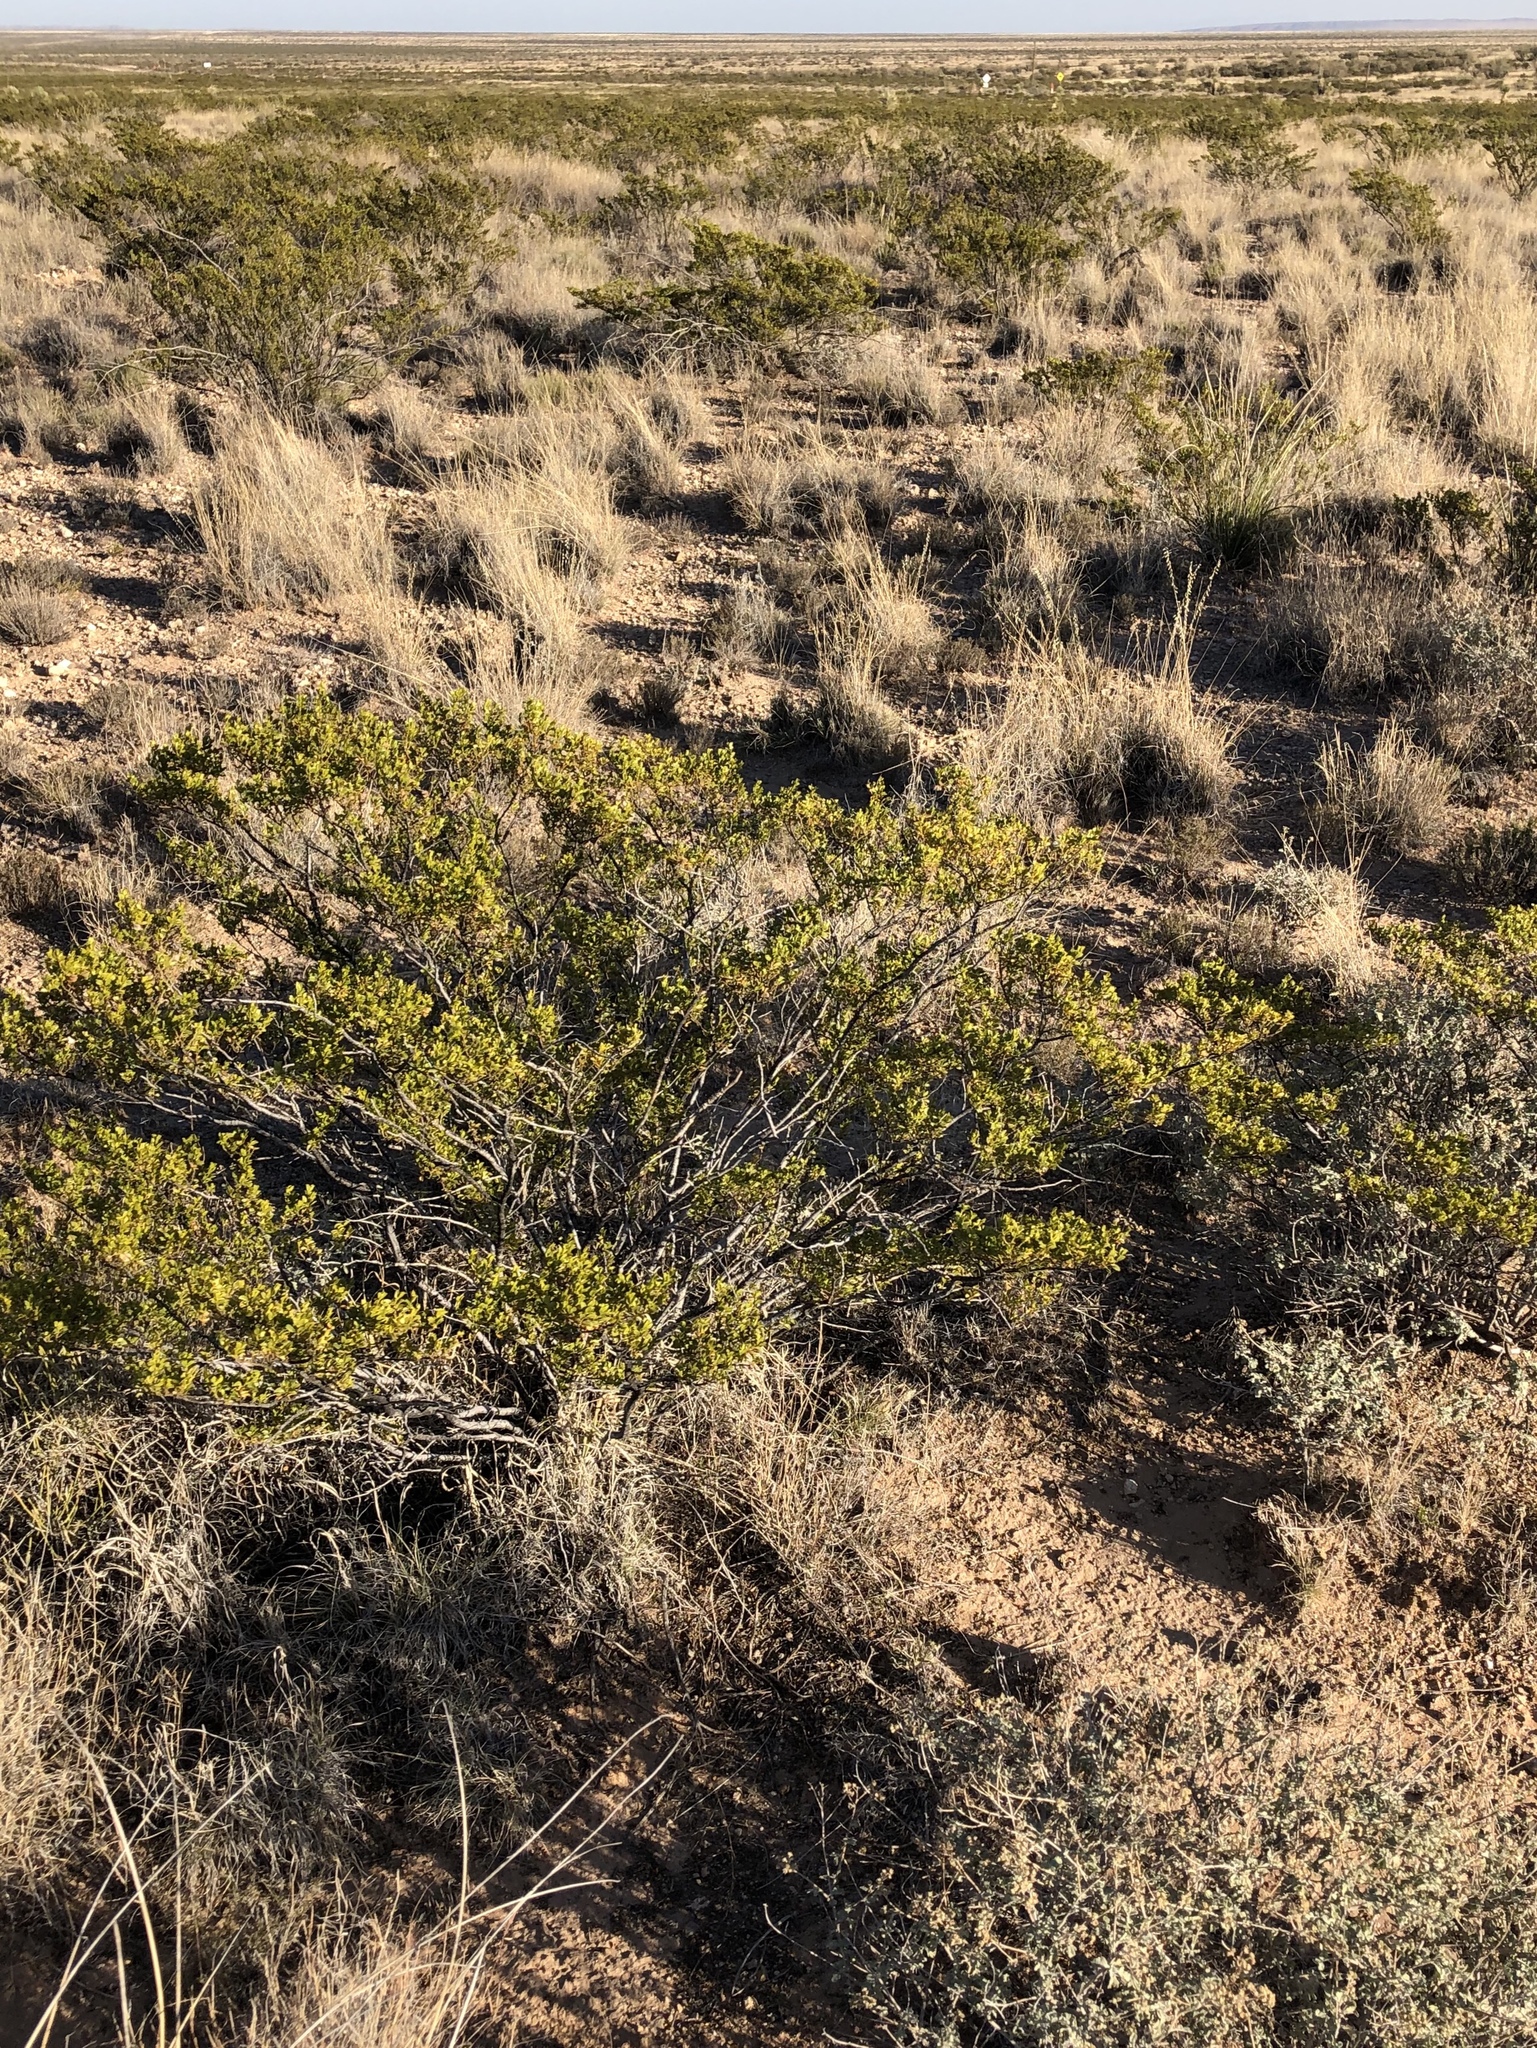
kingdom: Plantae
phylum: Tracheophyta
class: Magnoliopsida
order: Zygophyllales
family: Zygophyllaceae
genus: Larrea
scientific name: Larrea tridentata
